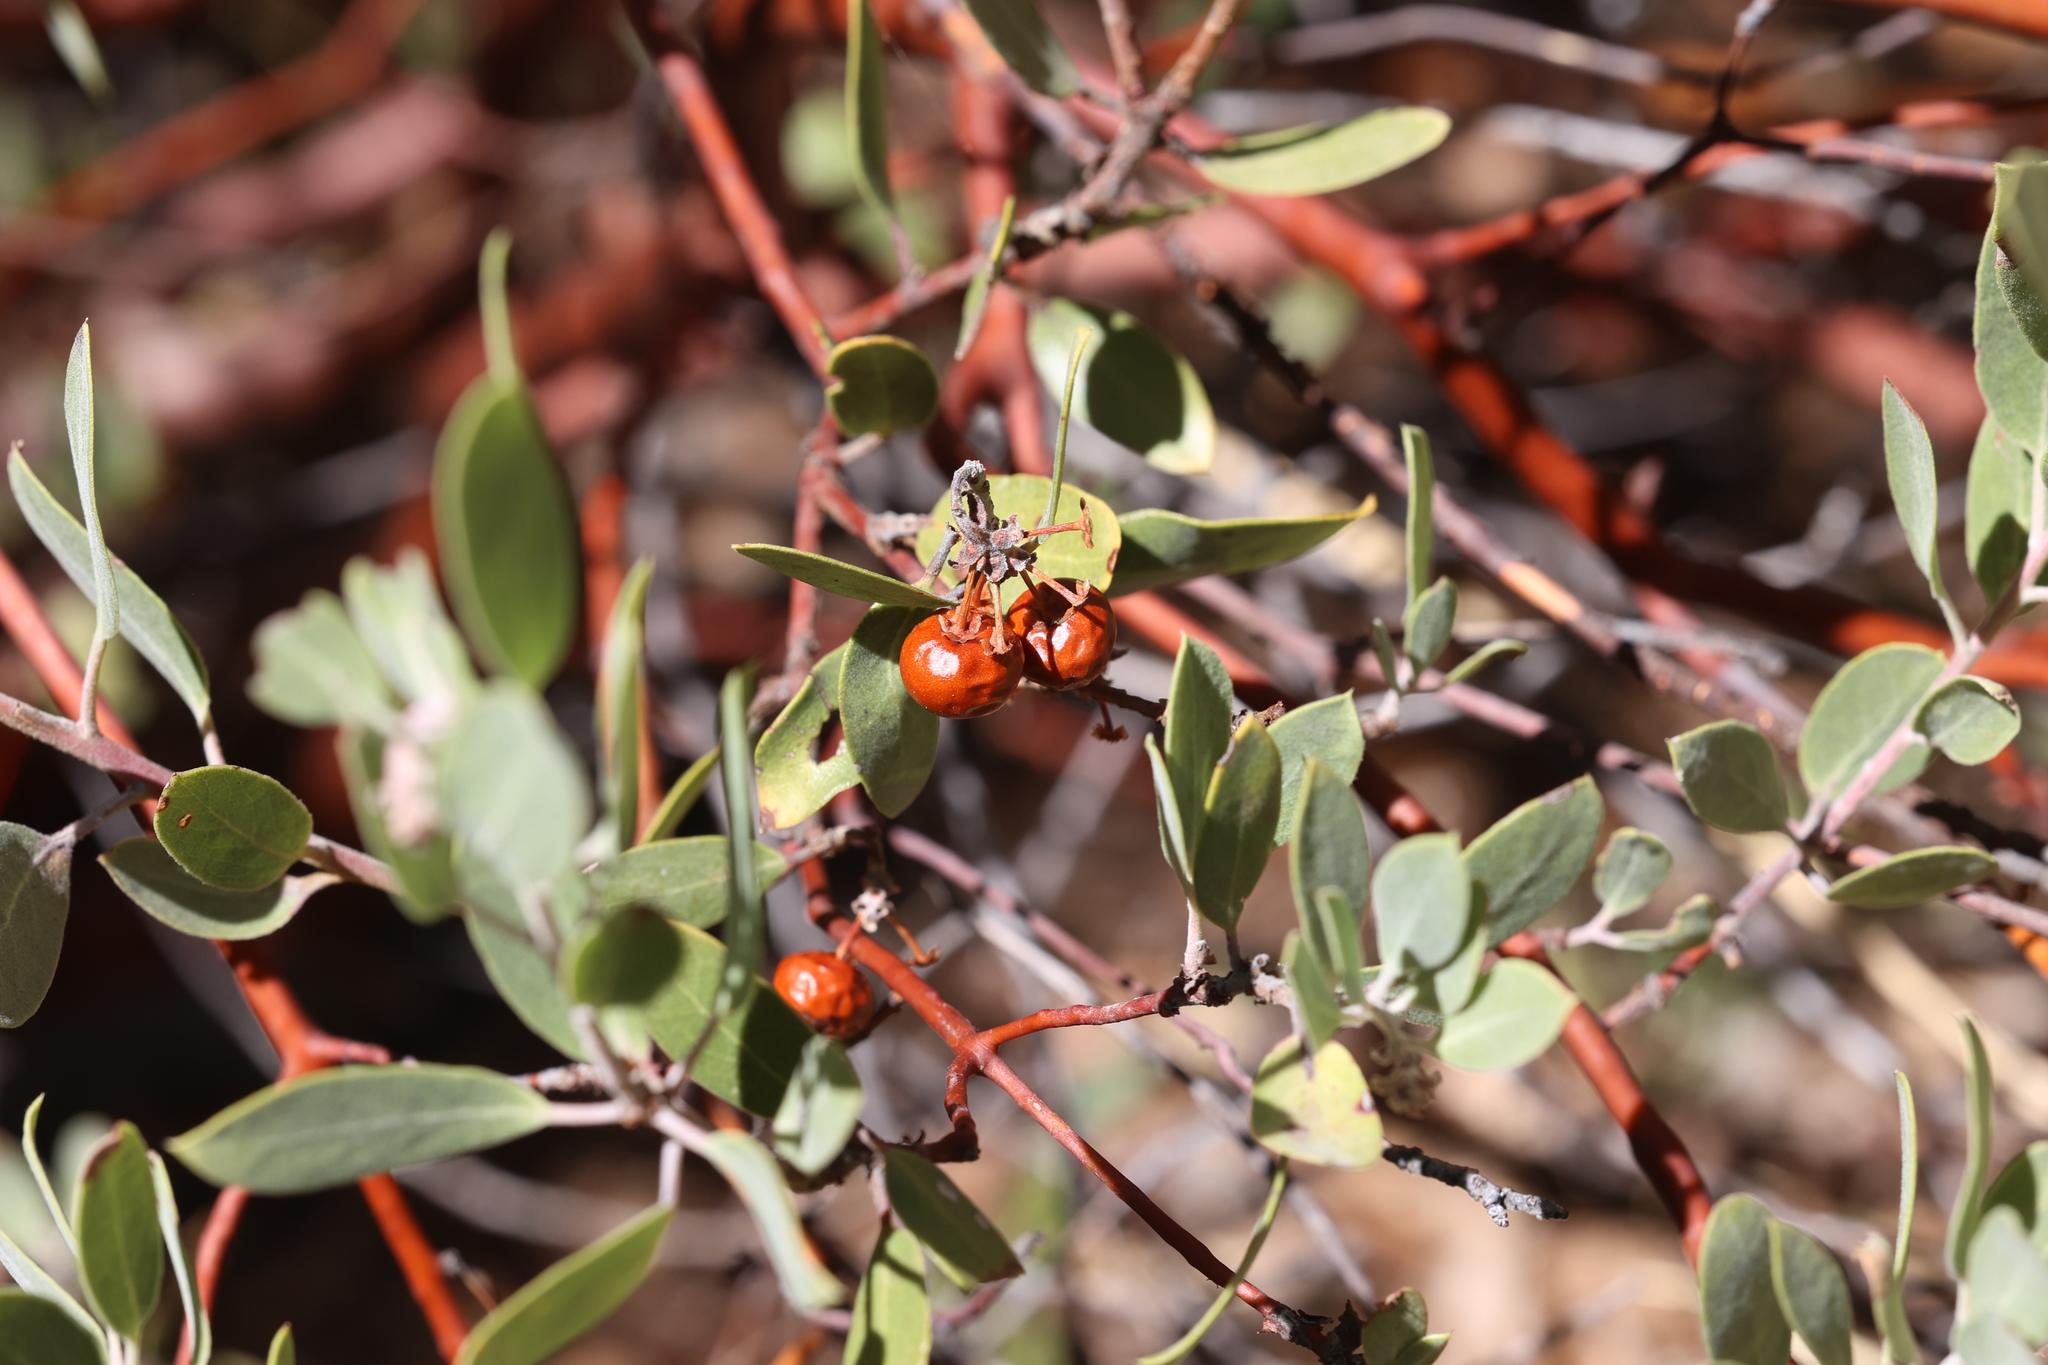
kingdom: Plantae
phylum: Tracheophyta
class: Magnoliopsida
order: Ericales
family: Ericaceae
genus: Arctostaphylos
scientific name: Arctostaphylos pungens
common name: Mexican manzanita
